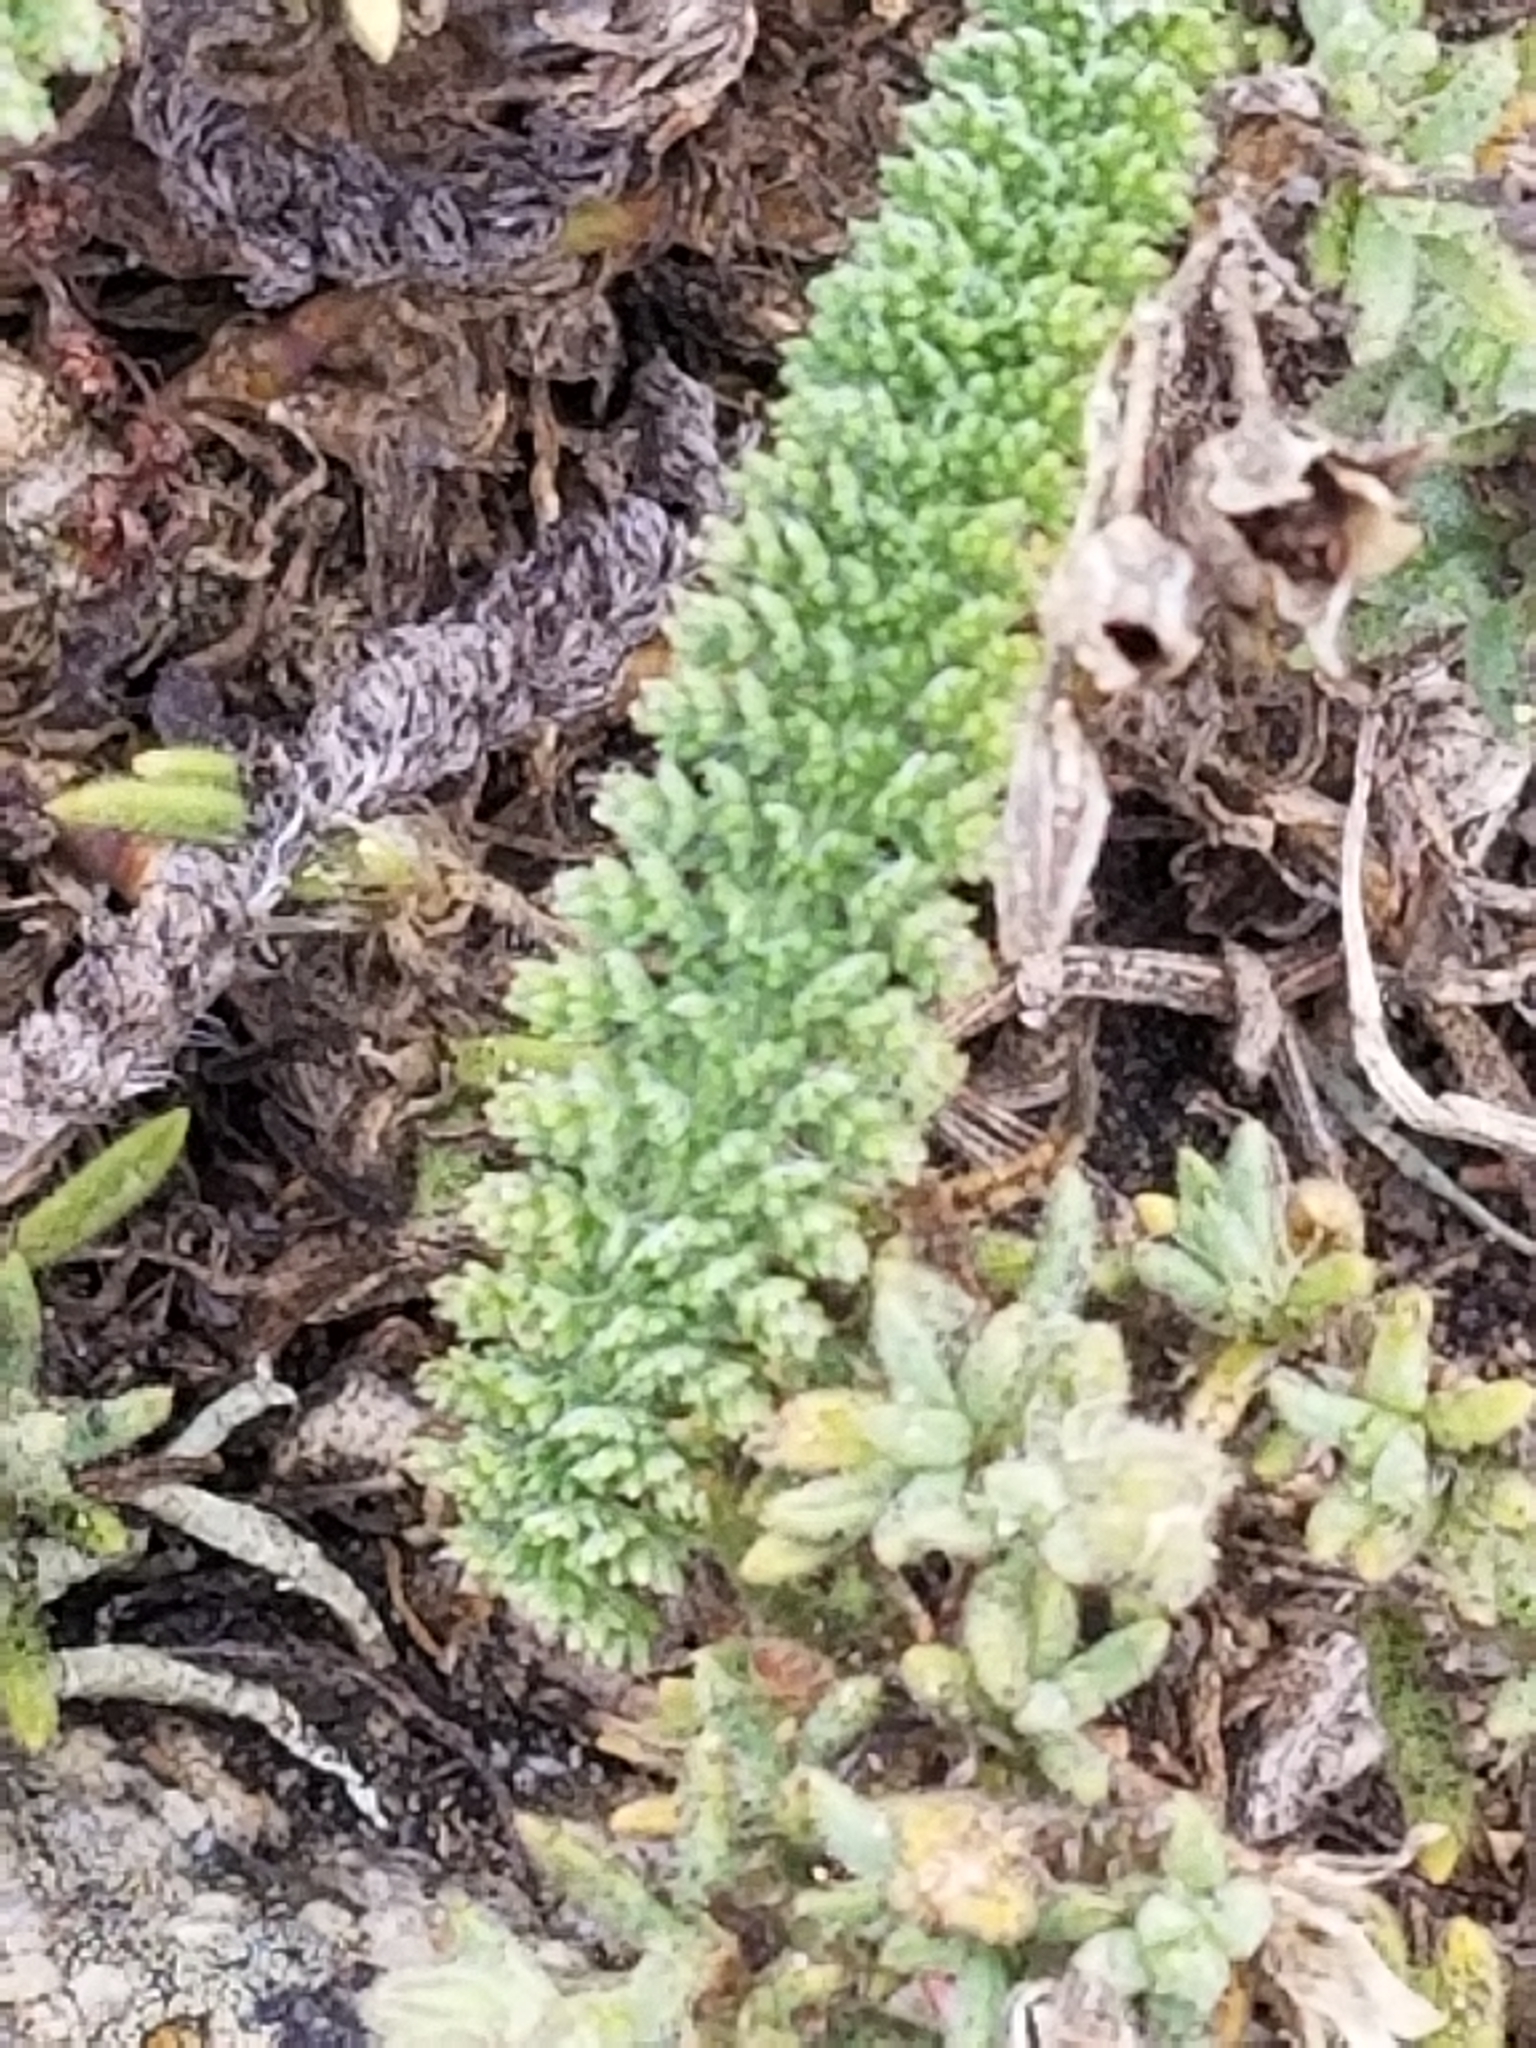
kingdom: Plantae
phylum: Tracheophyta
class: Magnoliopsida
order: Asterales
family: Asteraceae
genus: Achillea
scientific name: Achillea millefolium
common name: Yarrow
